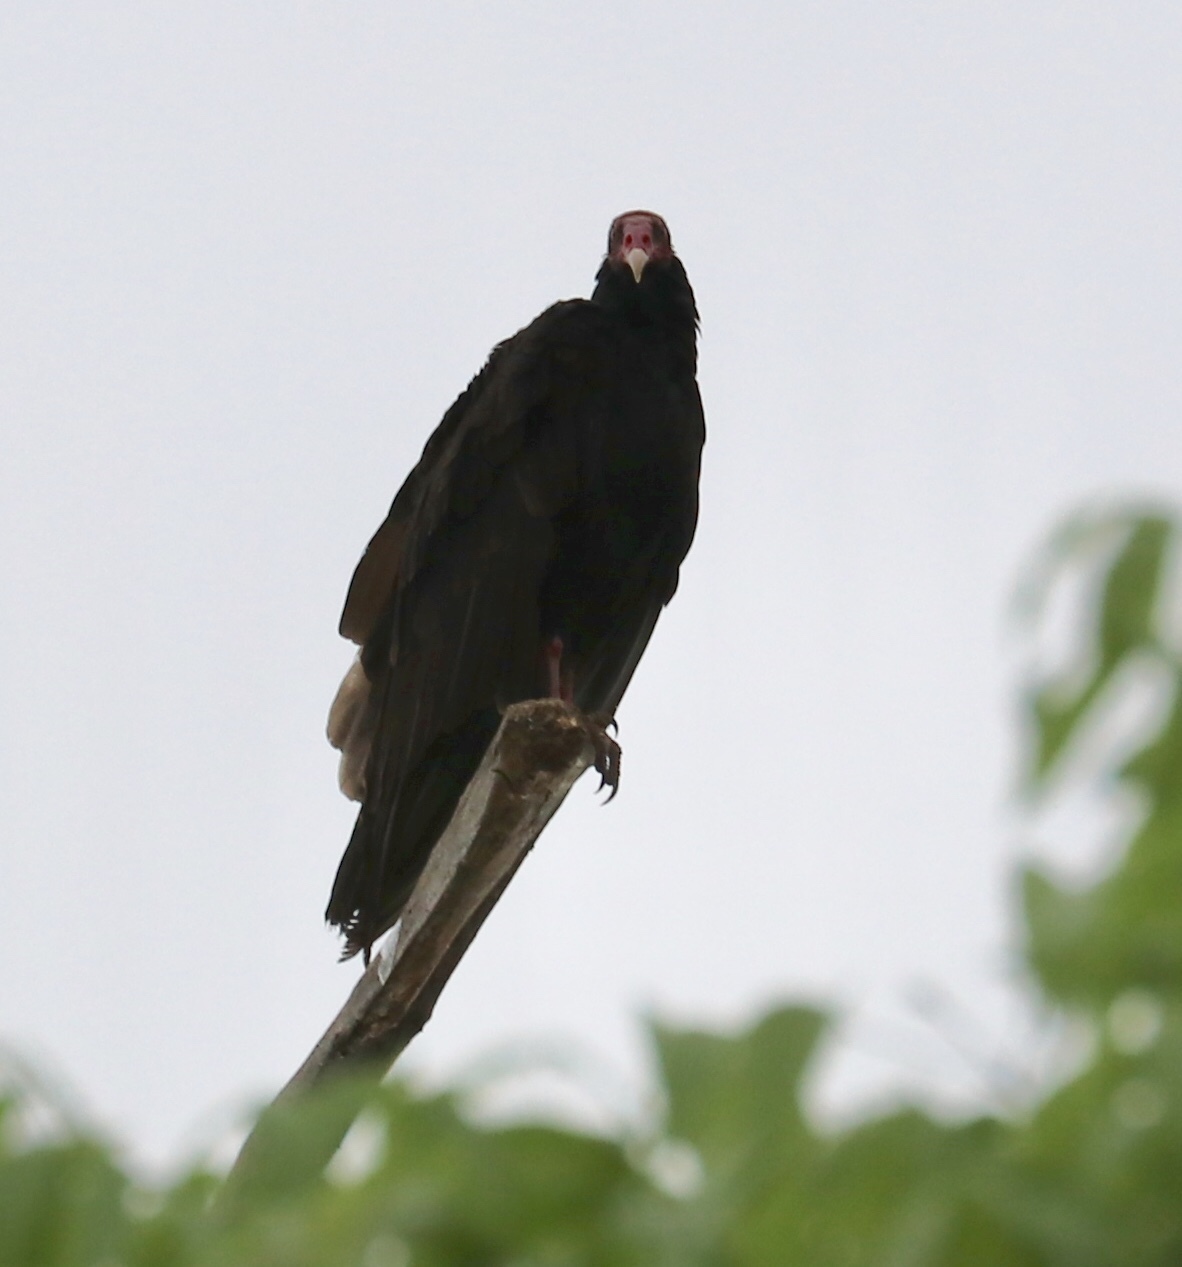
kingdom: Animalia
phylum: Chordata
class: Aves
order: Accipitriformes
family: Cathartidae
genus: Cathartes
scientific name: Cathartes aura
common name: Turkey vulture
